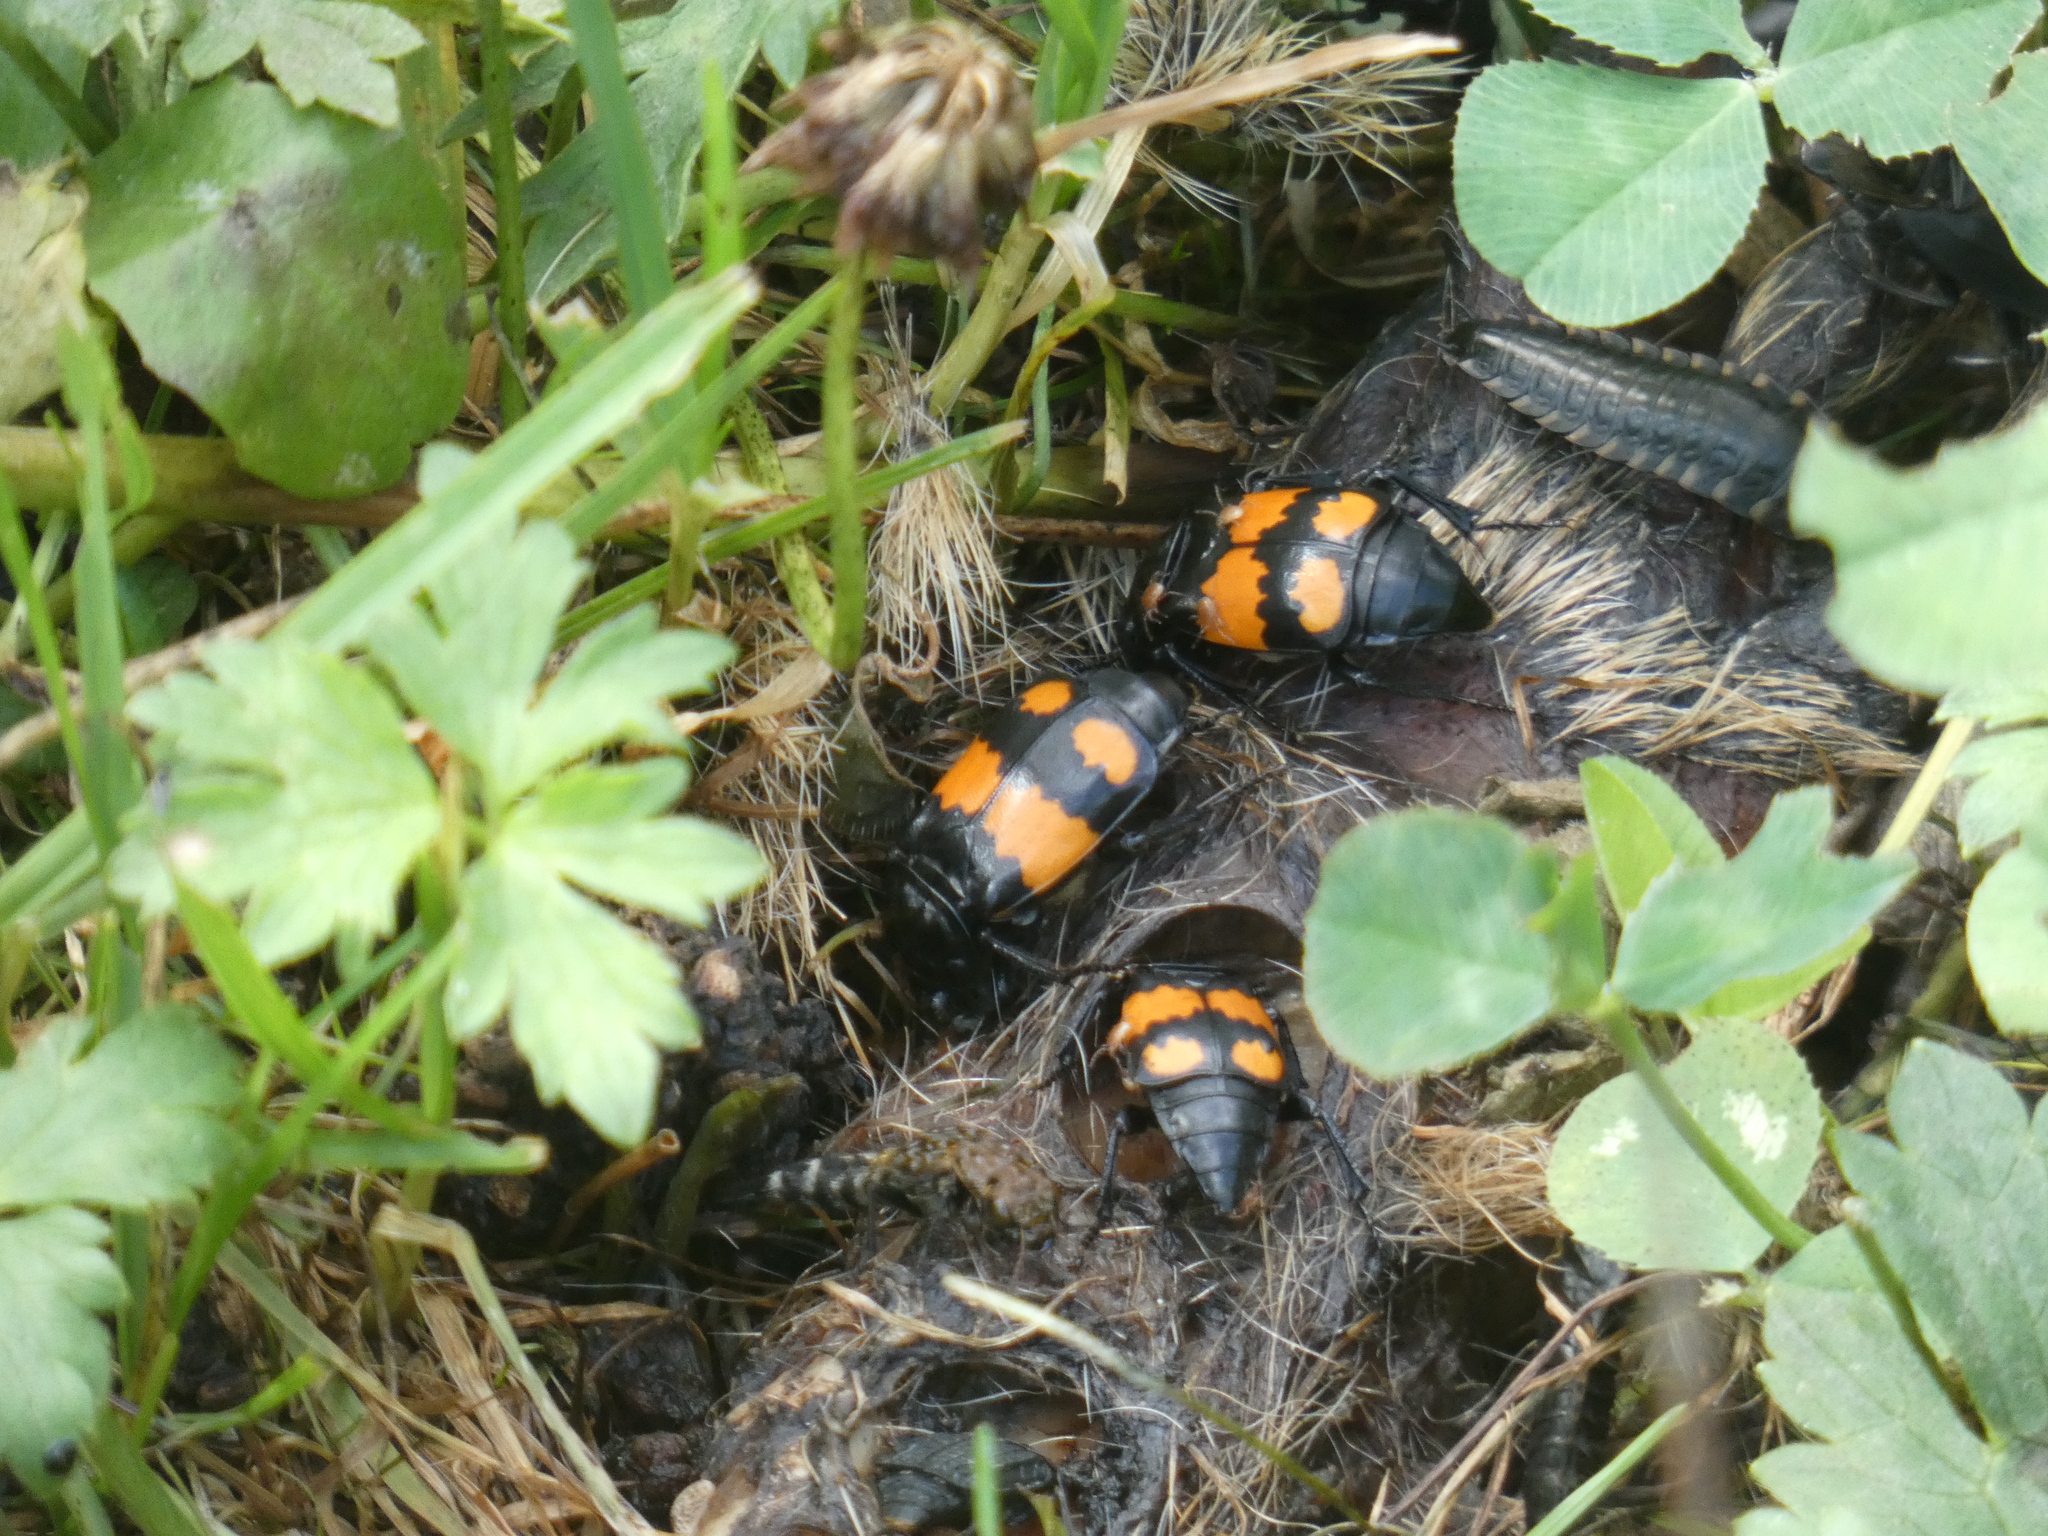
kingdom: Animalia
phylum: Arthropoda
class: Insecta
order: Coleoptera
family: Staphylinidae
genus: Nicrophorus
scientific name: Nicrophorus vespilloides
